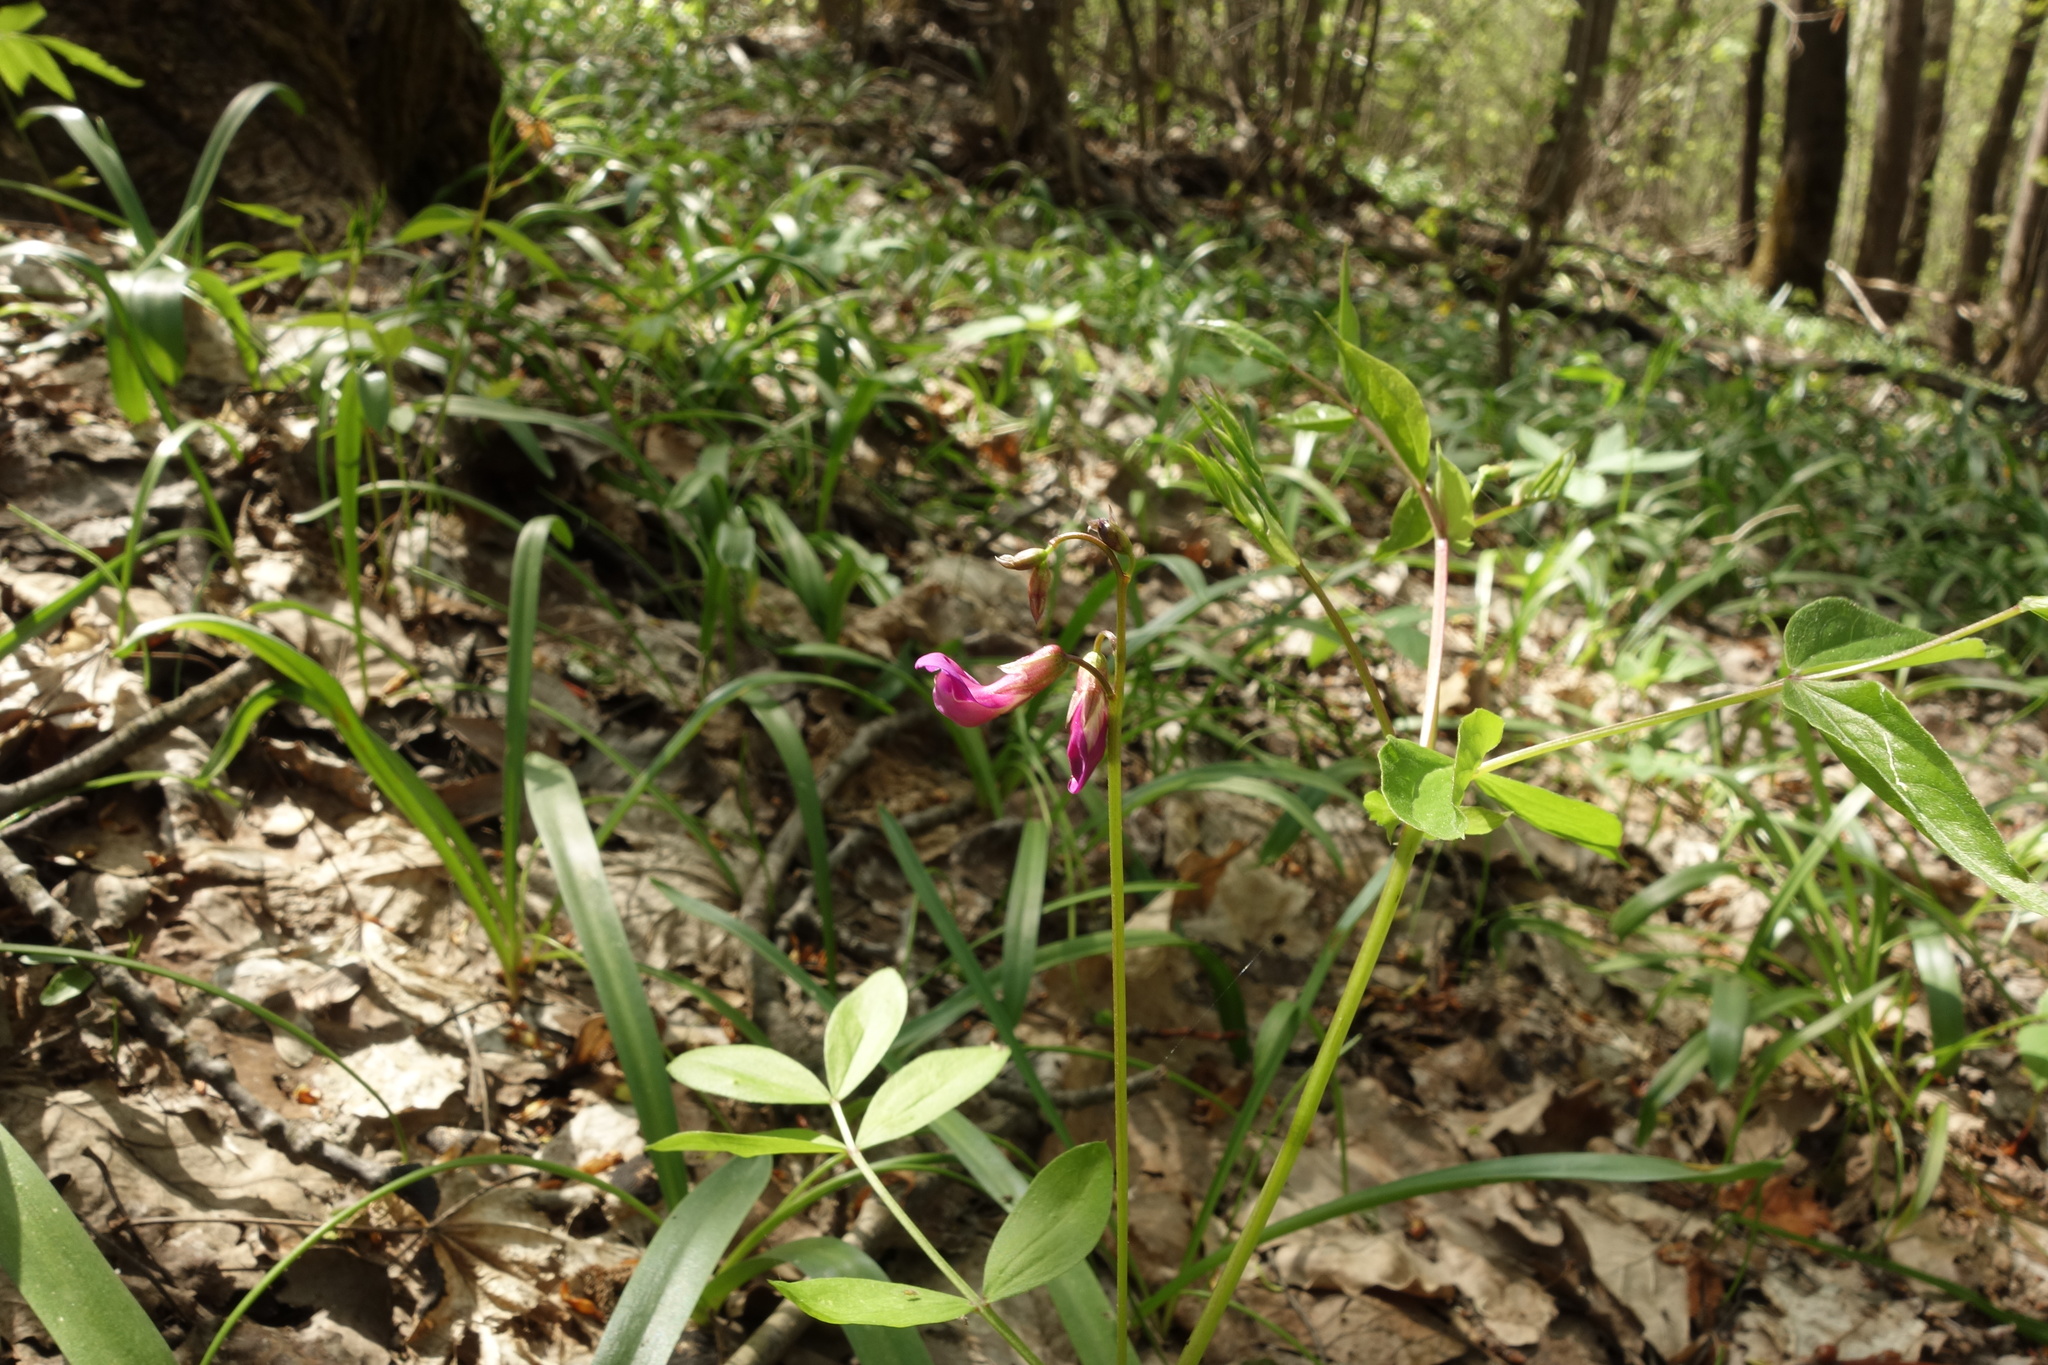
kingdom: Plantae
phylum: Tracheophyta
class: Magnoliopsida
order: Fabales
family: Fabaceae
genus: Lathyrus
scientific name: Lathyrus vernus
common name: Spring pea
